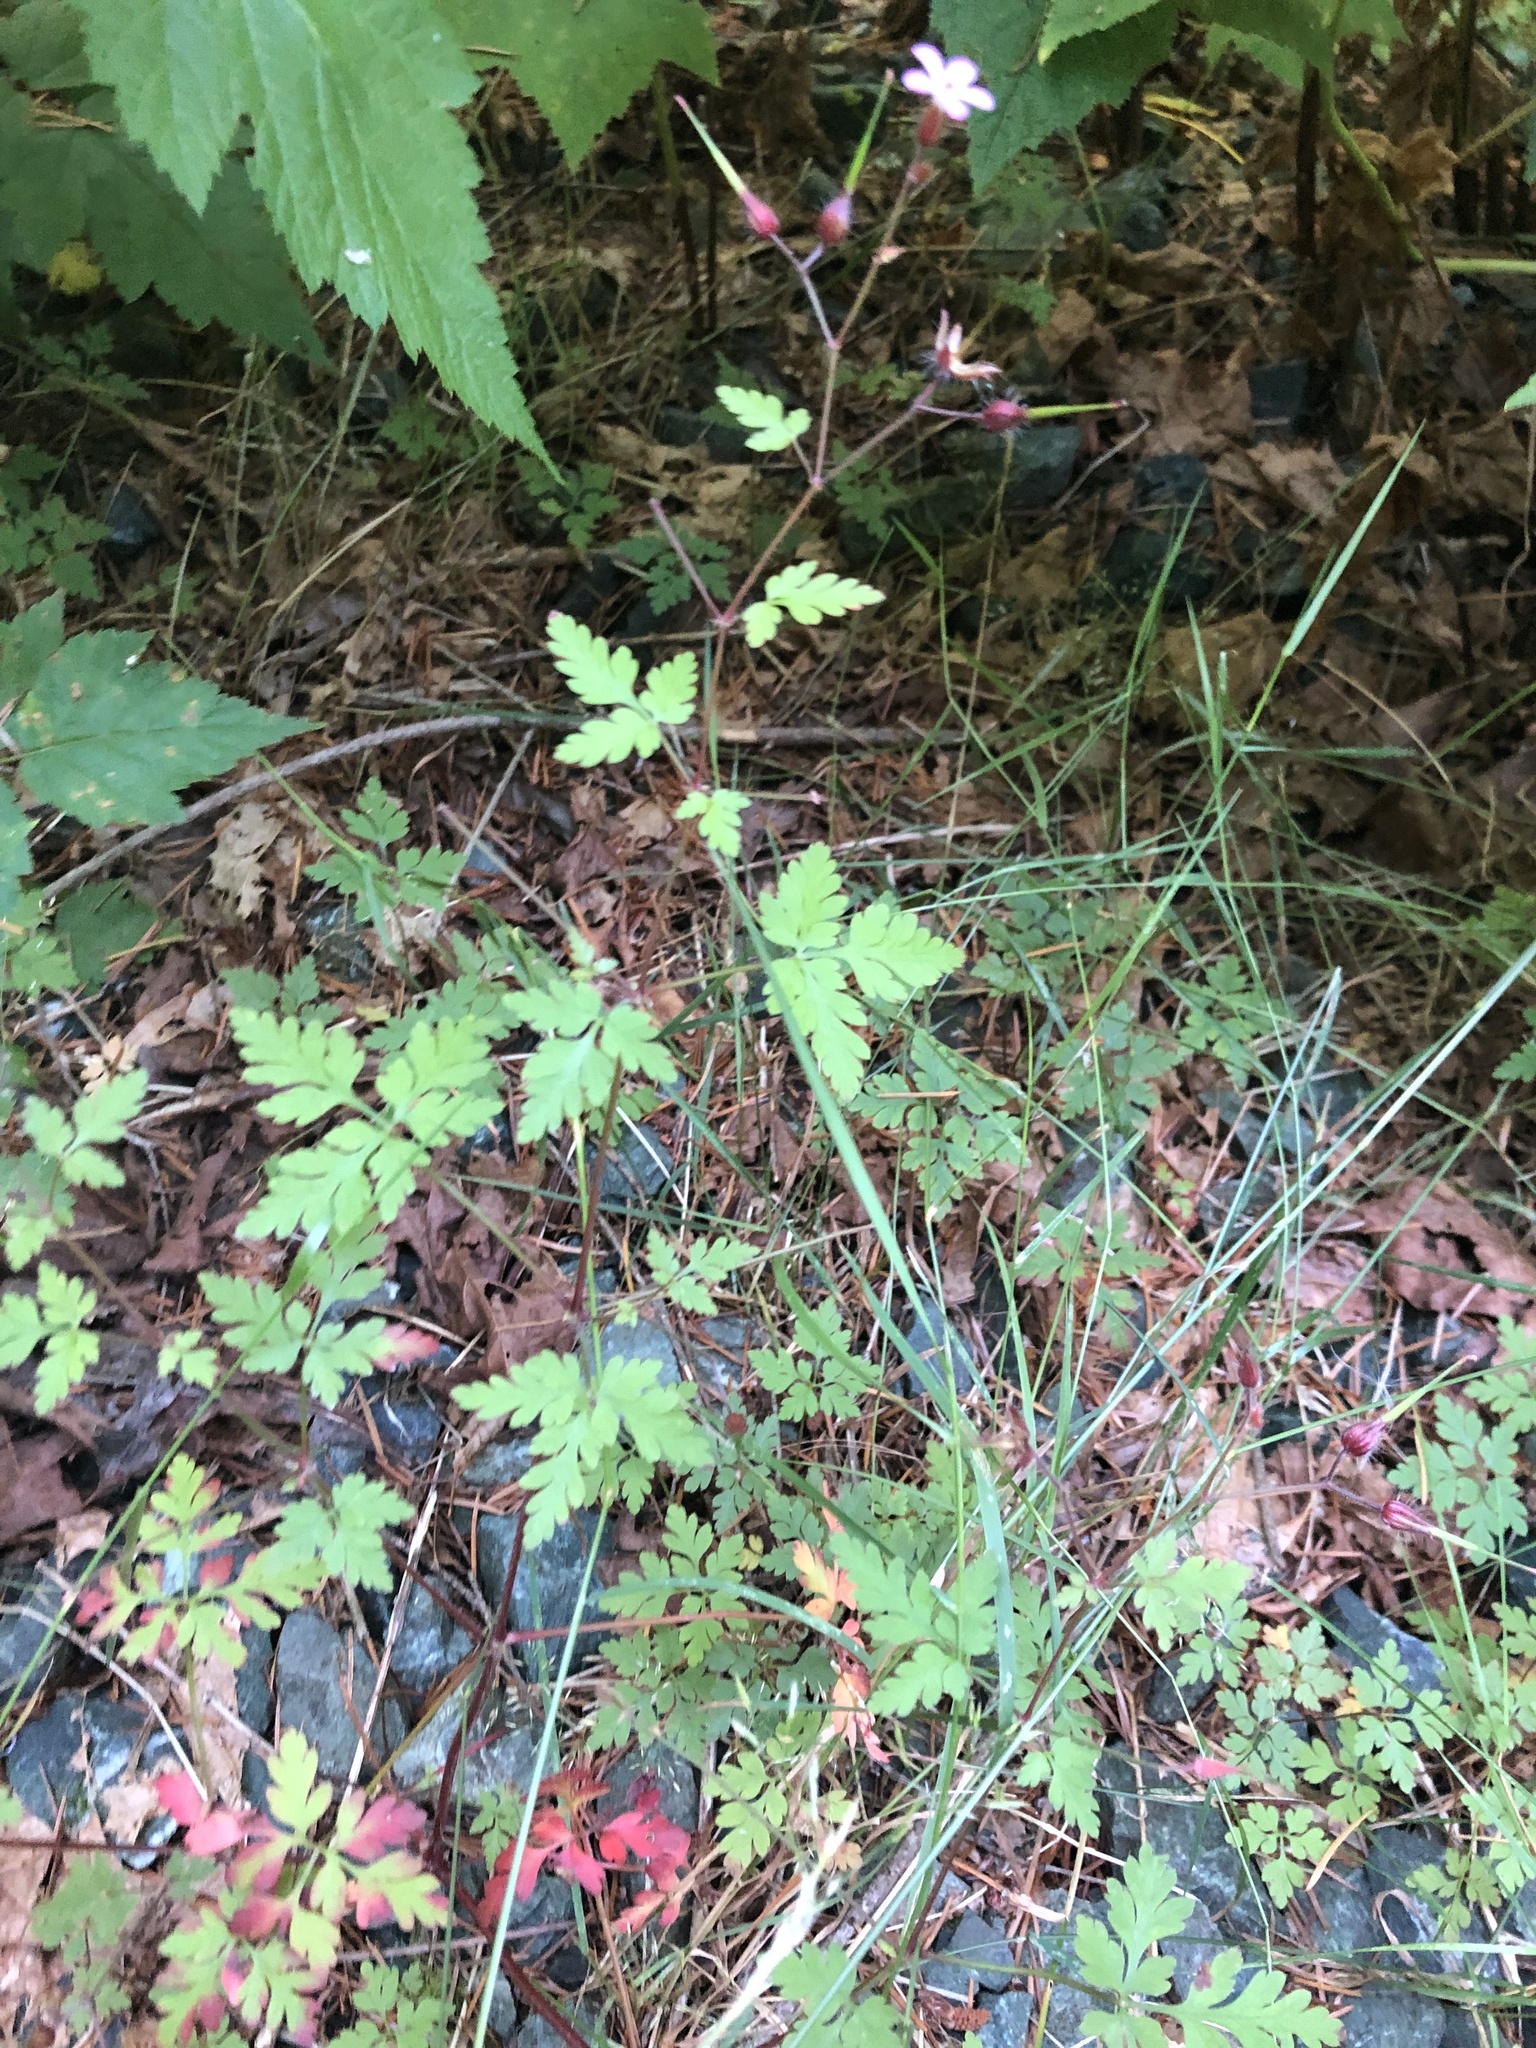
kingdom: Plantae
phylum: Tracheophyta
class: Magnoliopsida
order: Geraniales
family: Geraniaceae
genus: Geranium
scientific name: Geranium robertianum
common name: Herb-robert
